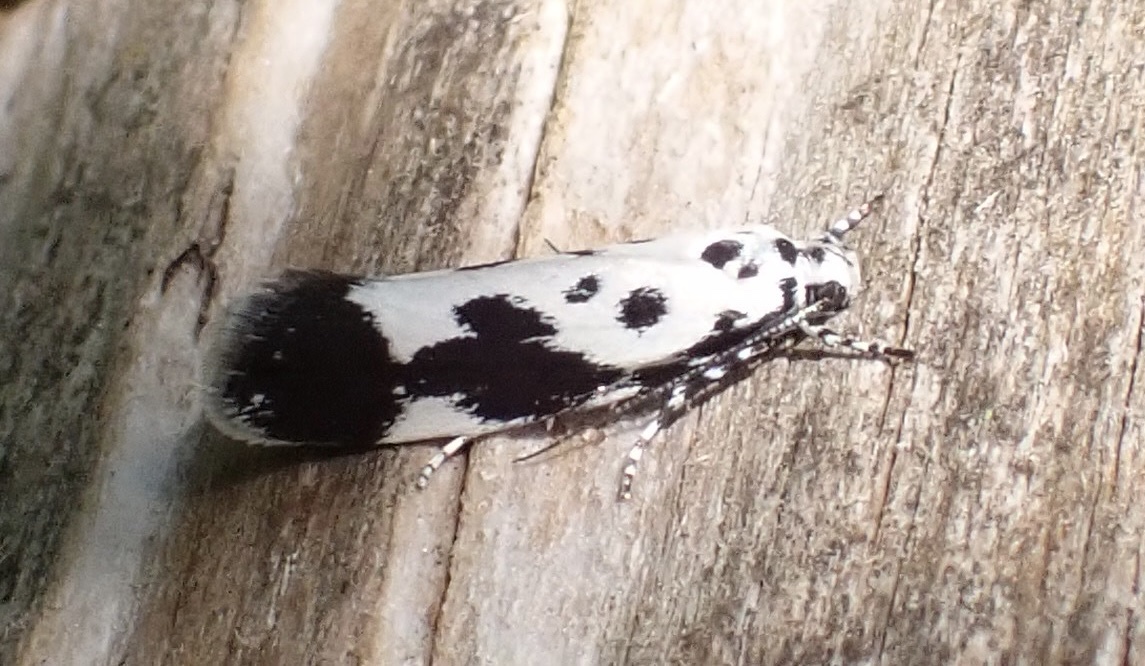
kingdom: Animalia
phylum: Arthropoda
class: Insecta
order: Lepidoptera
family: Ethmiidae
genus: Ethmia
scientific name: Ethmia quadrillella
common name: Comfrey ermel
